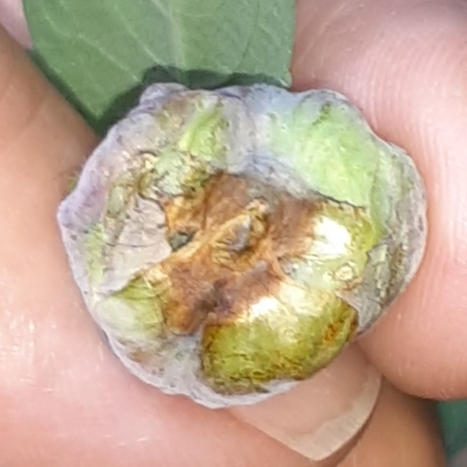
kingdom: Animalia
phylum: Arthropoda
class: Insecta
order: Diptera
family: Cecidomyiidae
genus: Schizomyia
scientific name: Schizomyia impatientis
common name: Jewelweed gall midge
